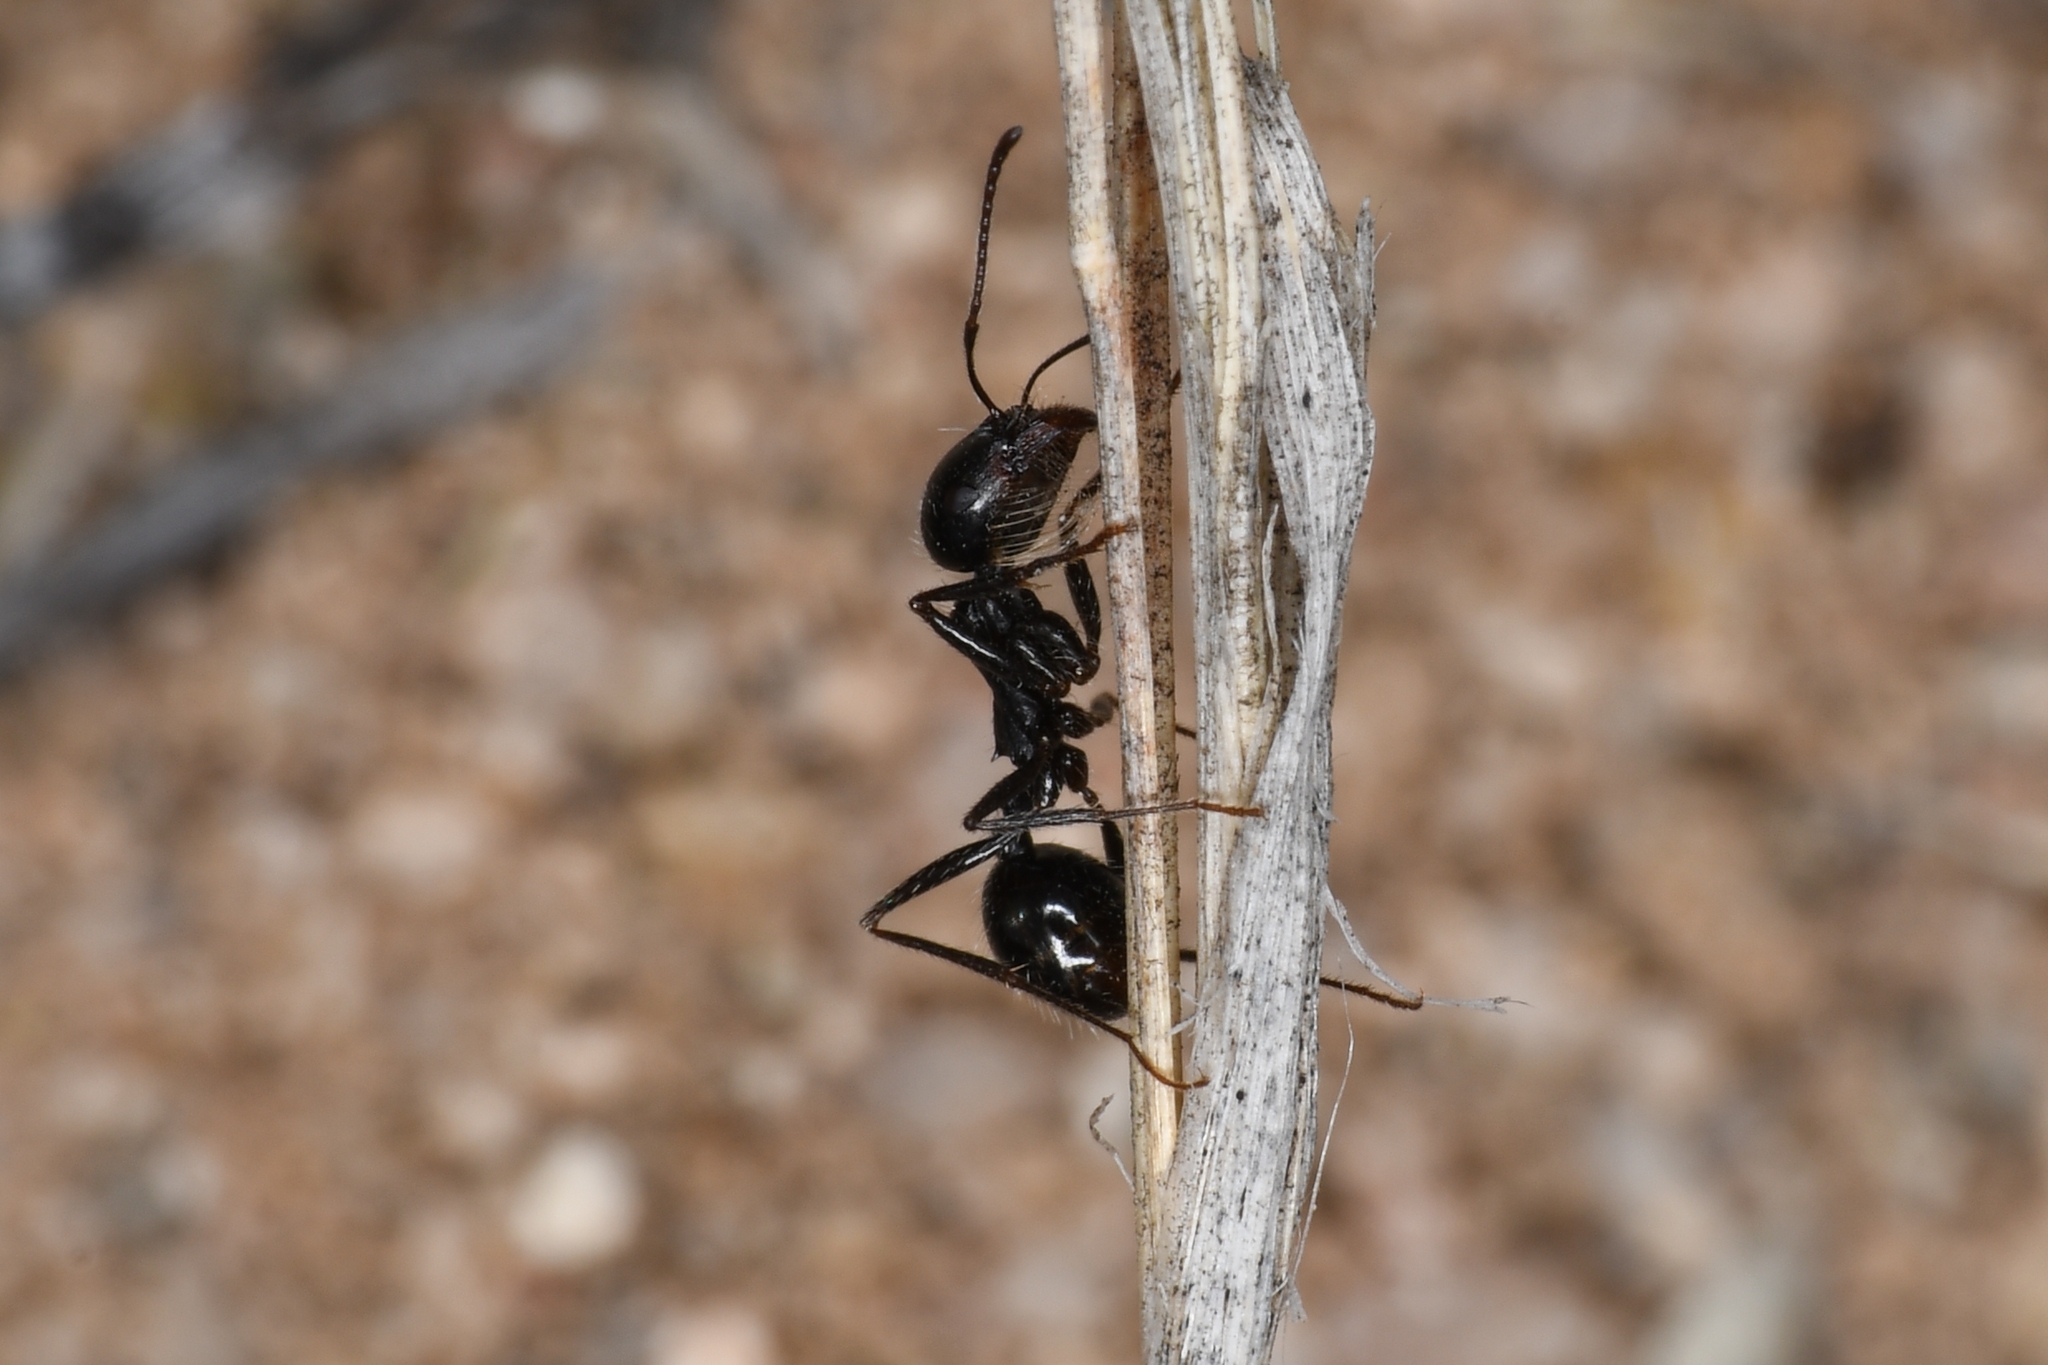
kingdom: Animalia
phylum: Arthropoda
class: Insecta
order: Hymenoptera
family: Formicidae
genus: Messor
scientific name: Messor pergandei
